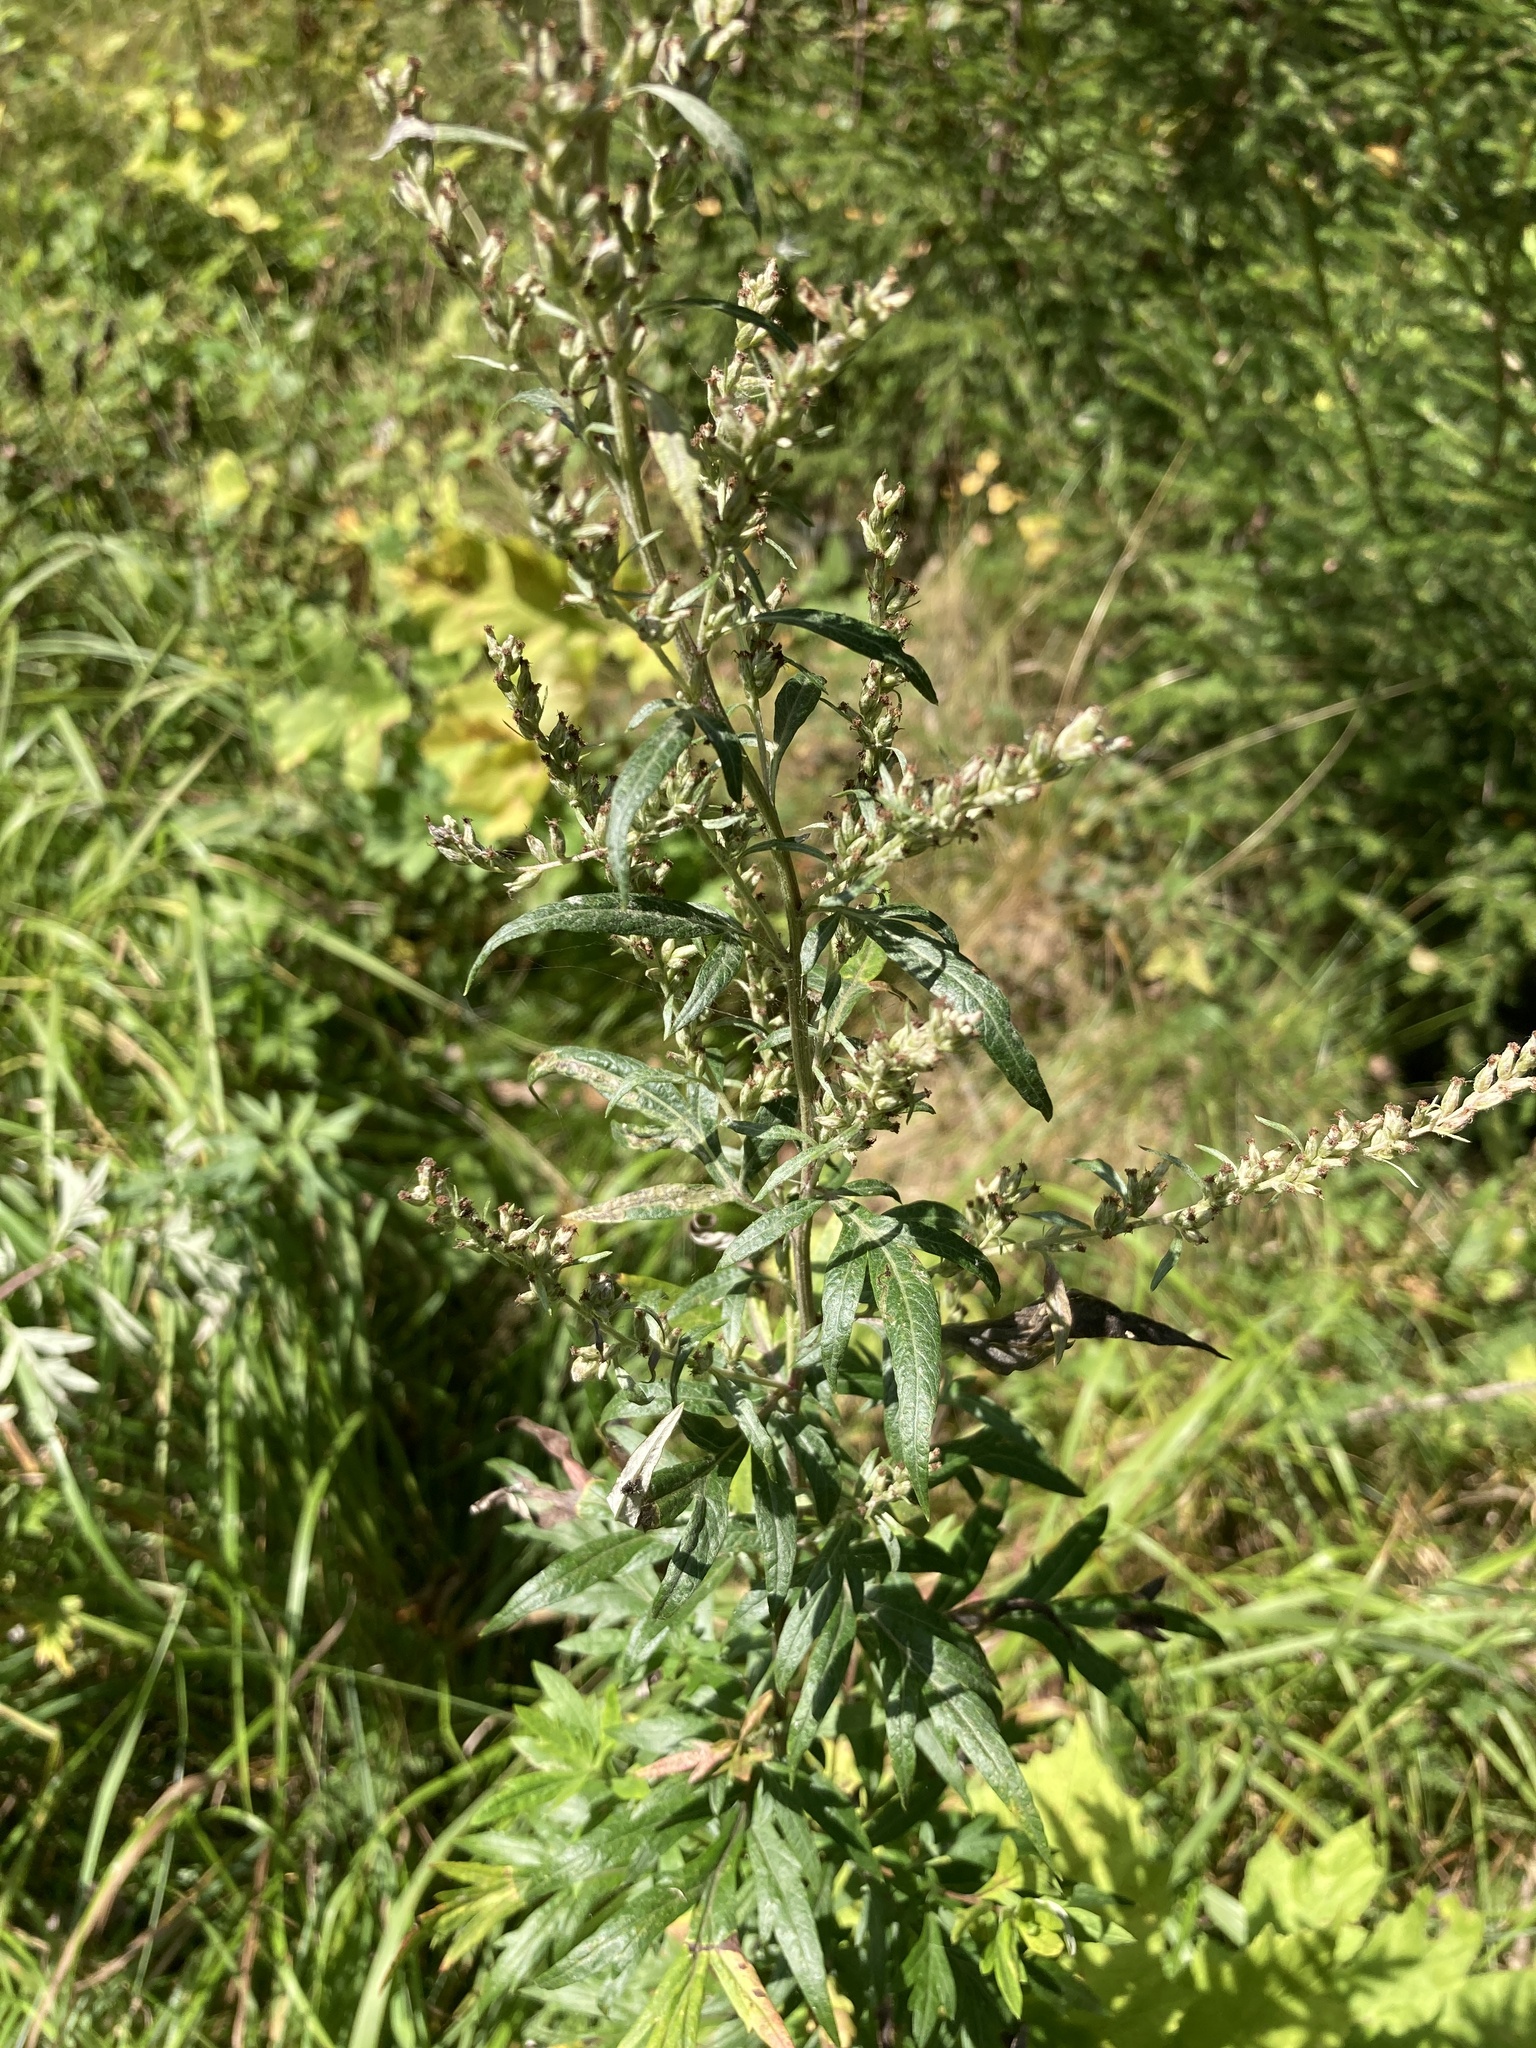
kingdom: Plantae
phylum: Tracheophyta
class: Magnoliopsida
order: Asterales
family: Asteraceae
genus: Artemisia
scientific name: Artemisia vulgaris
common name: Mugwort
